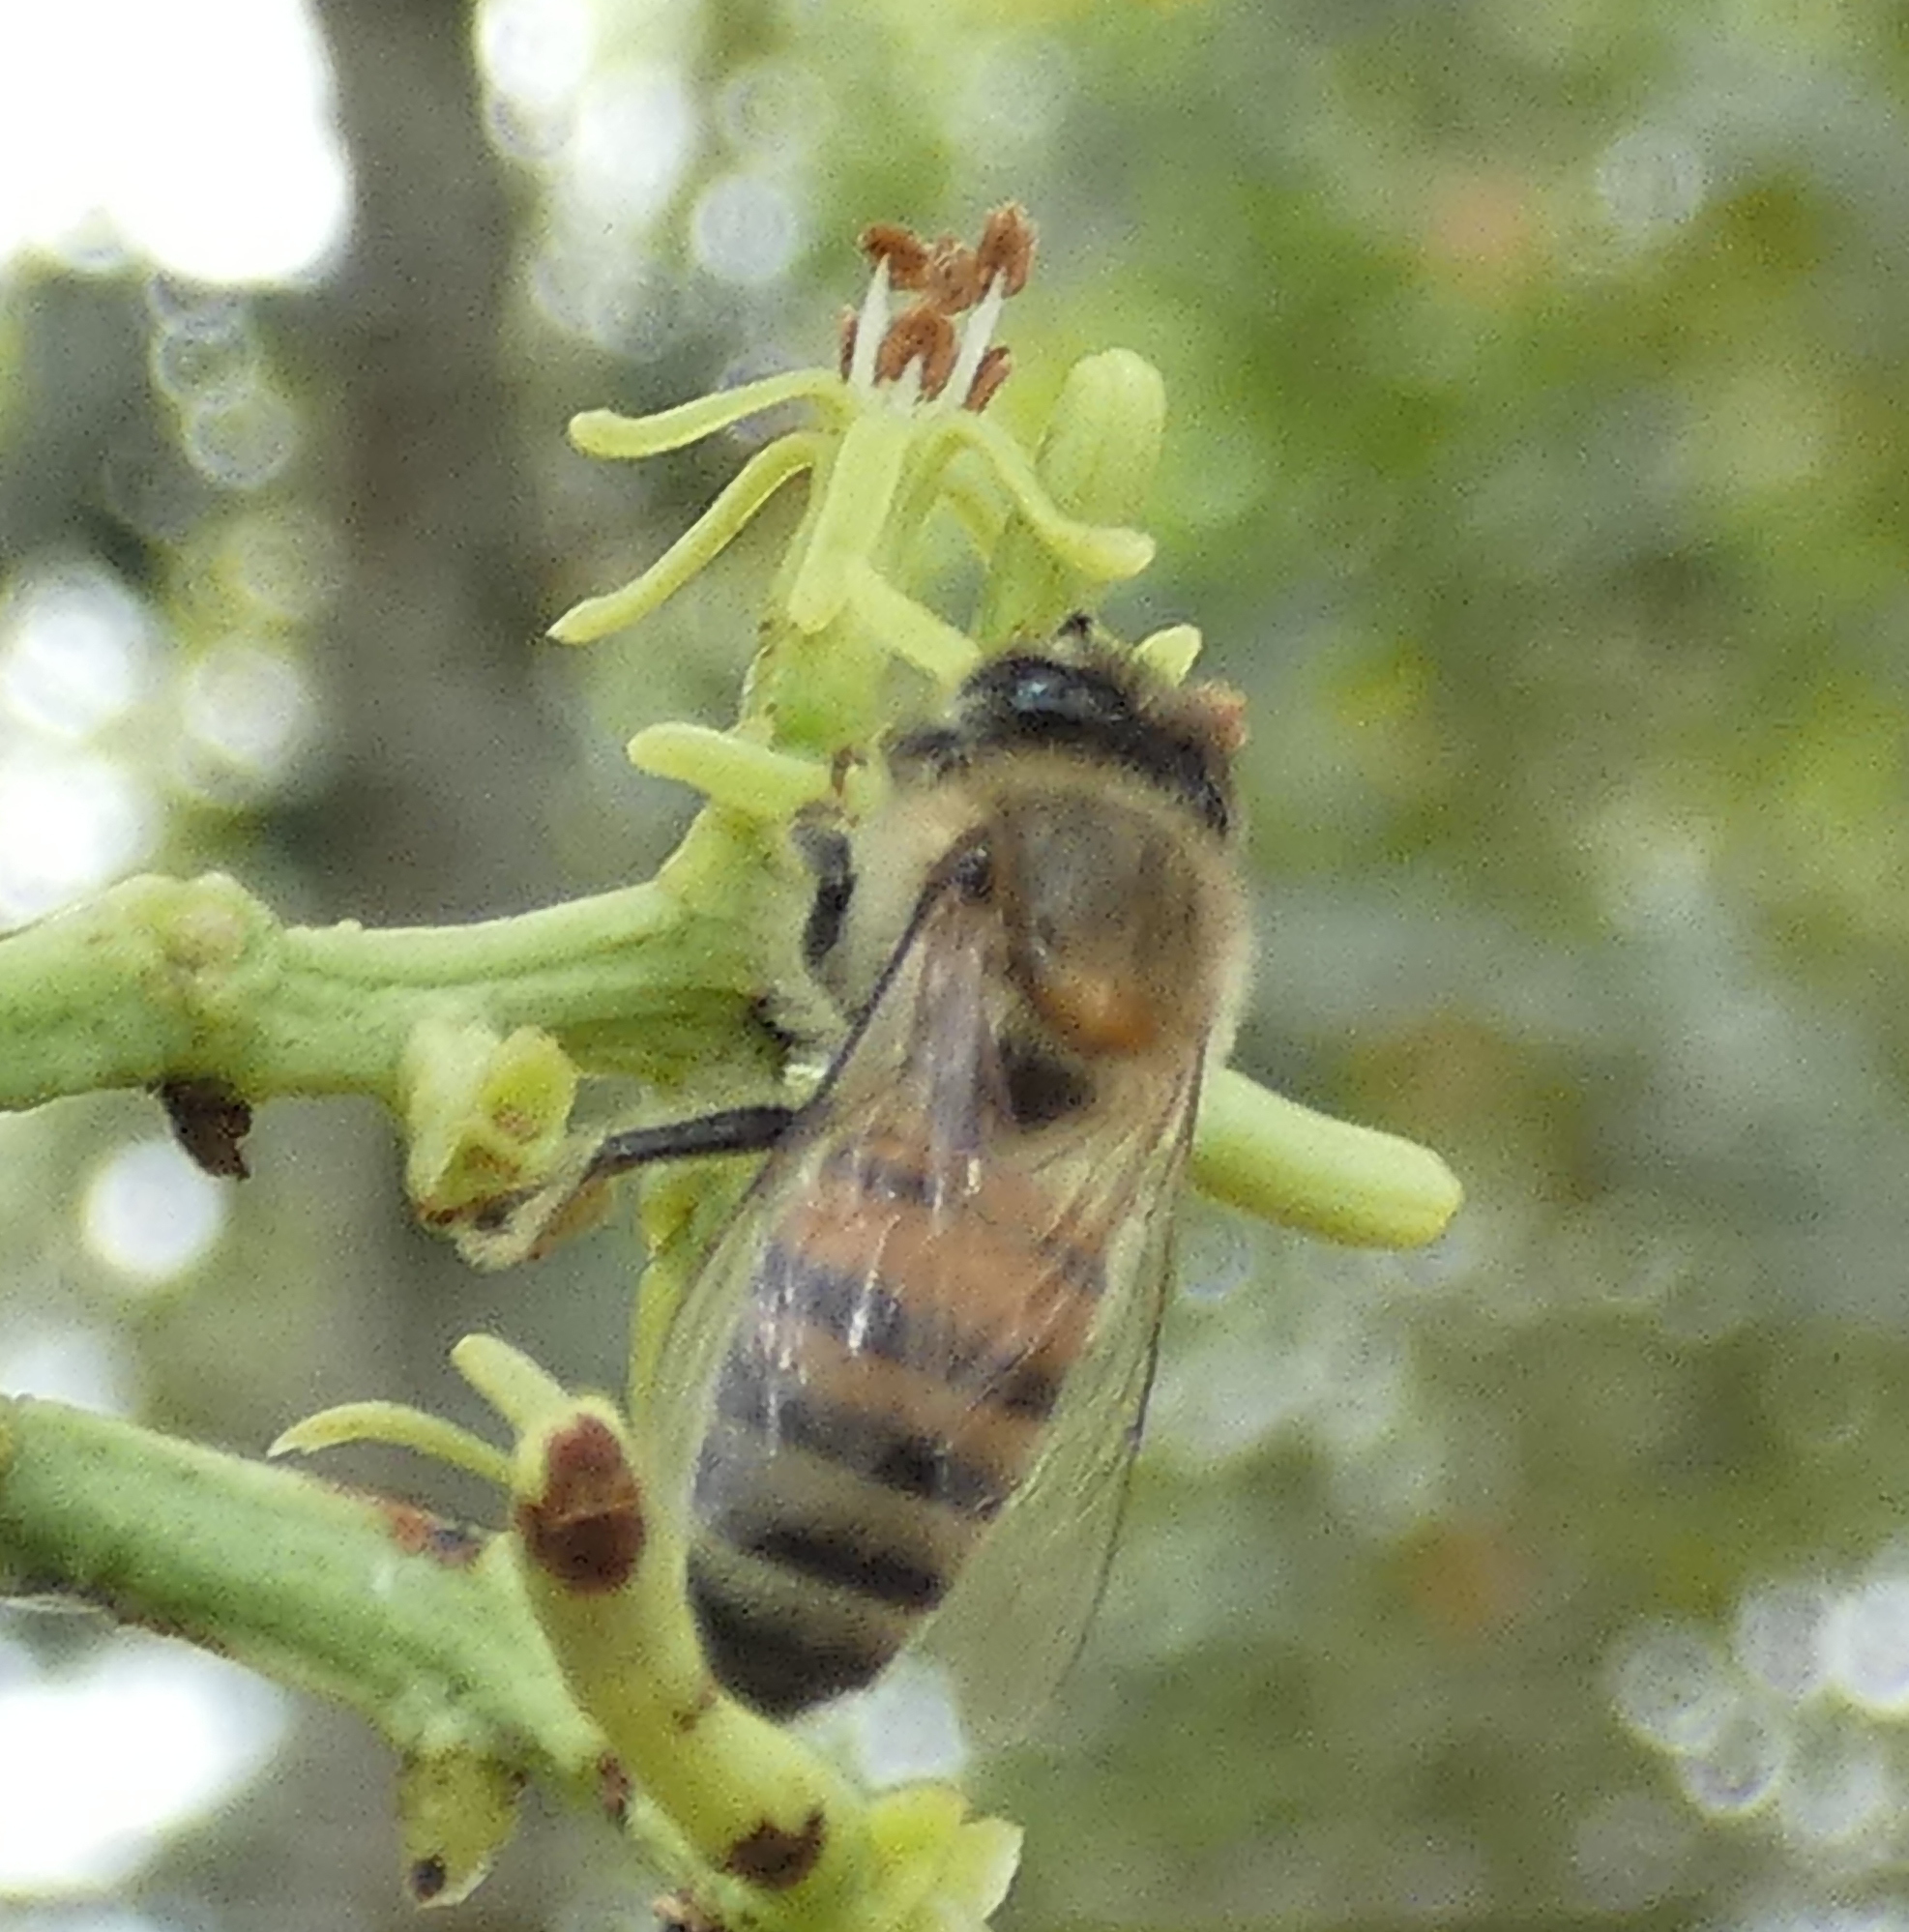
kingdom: Animalia
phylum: Arthropoda
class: Insecta
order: Hymenoptera
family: Apidae
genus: Apis
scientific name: Apis mellifera
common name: Honey bee
